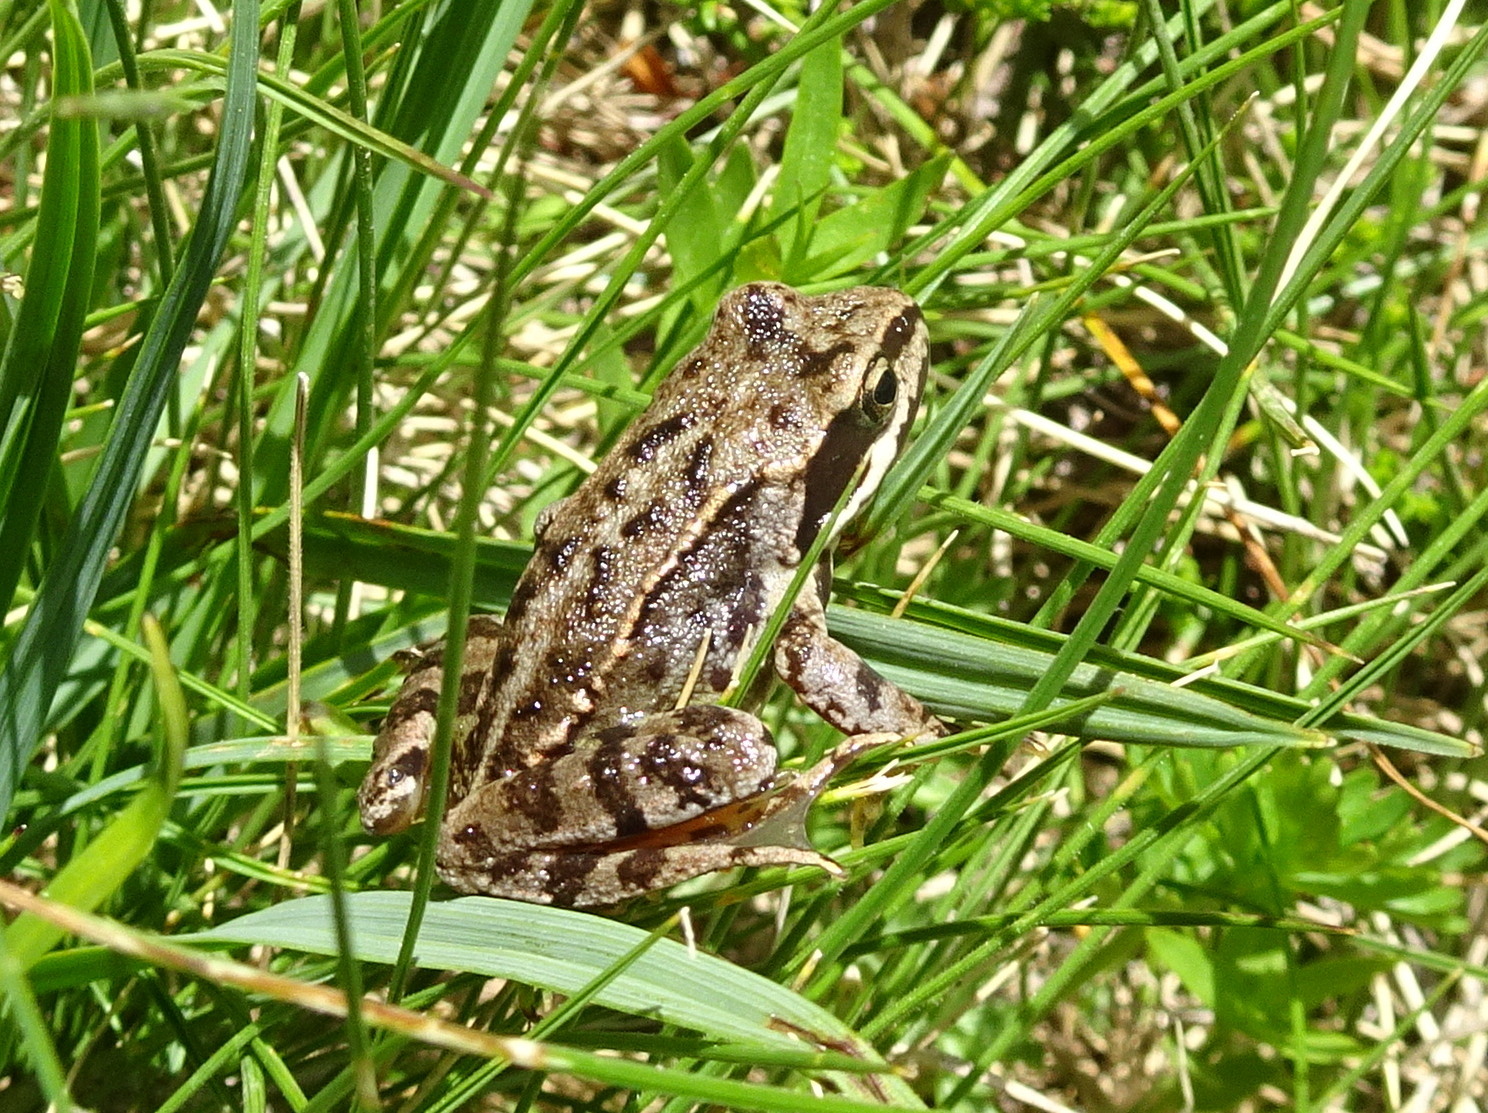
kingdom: Animalia
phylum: Chordata
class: Amphibia
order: Anura
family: Ranidae
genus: Rana
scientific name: Rana temporaria
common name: Common frog
